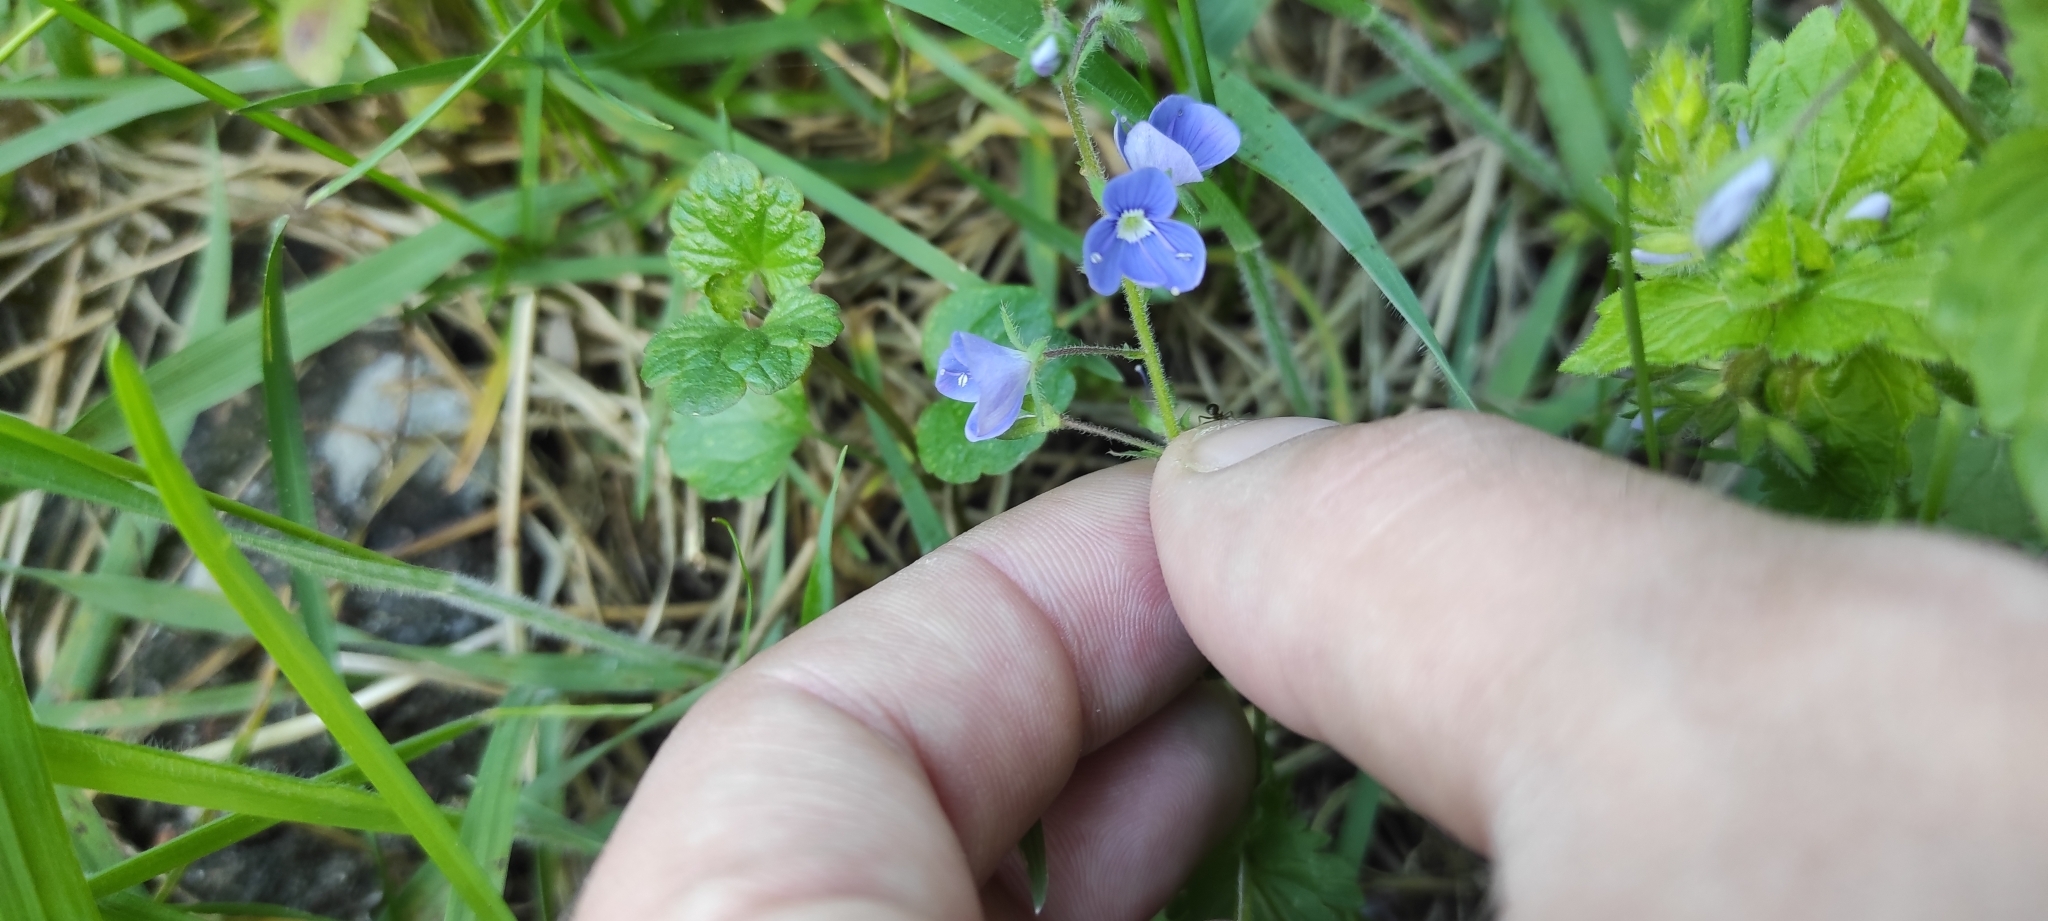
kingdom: Plantae
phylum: Tracheophyta
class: Magnoliopsida
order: Lamiales
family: Plantaginaceae
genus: Veronica
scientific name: Veronica chamaedrys
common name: Germander speedwell
